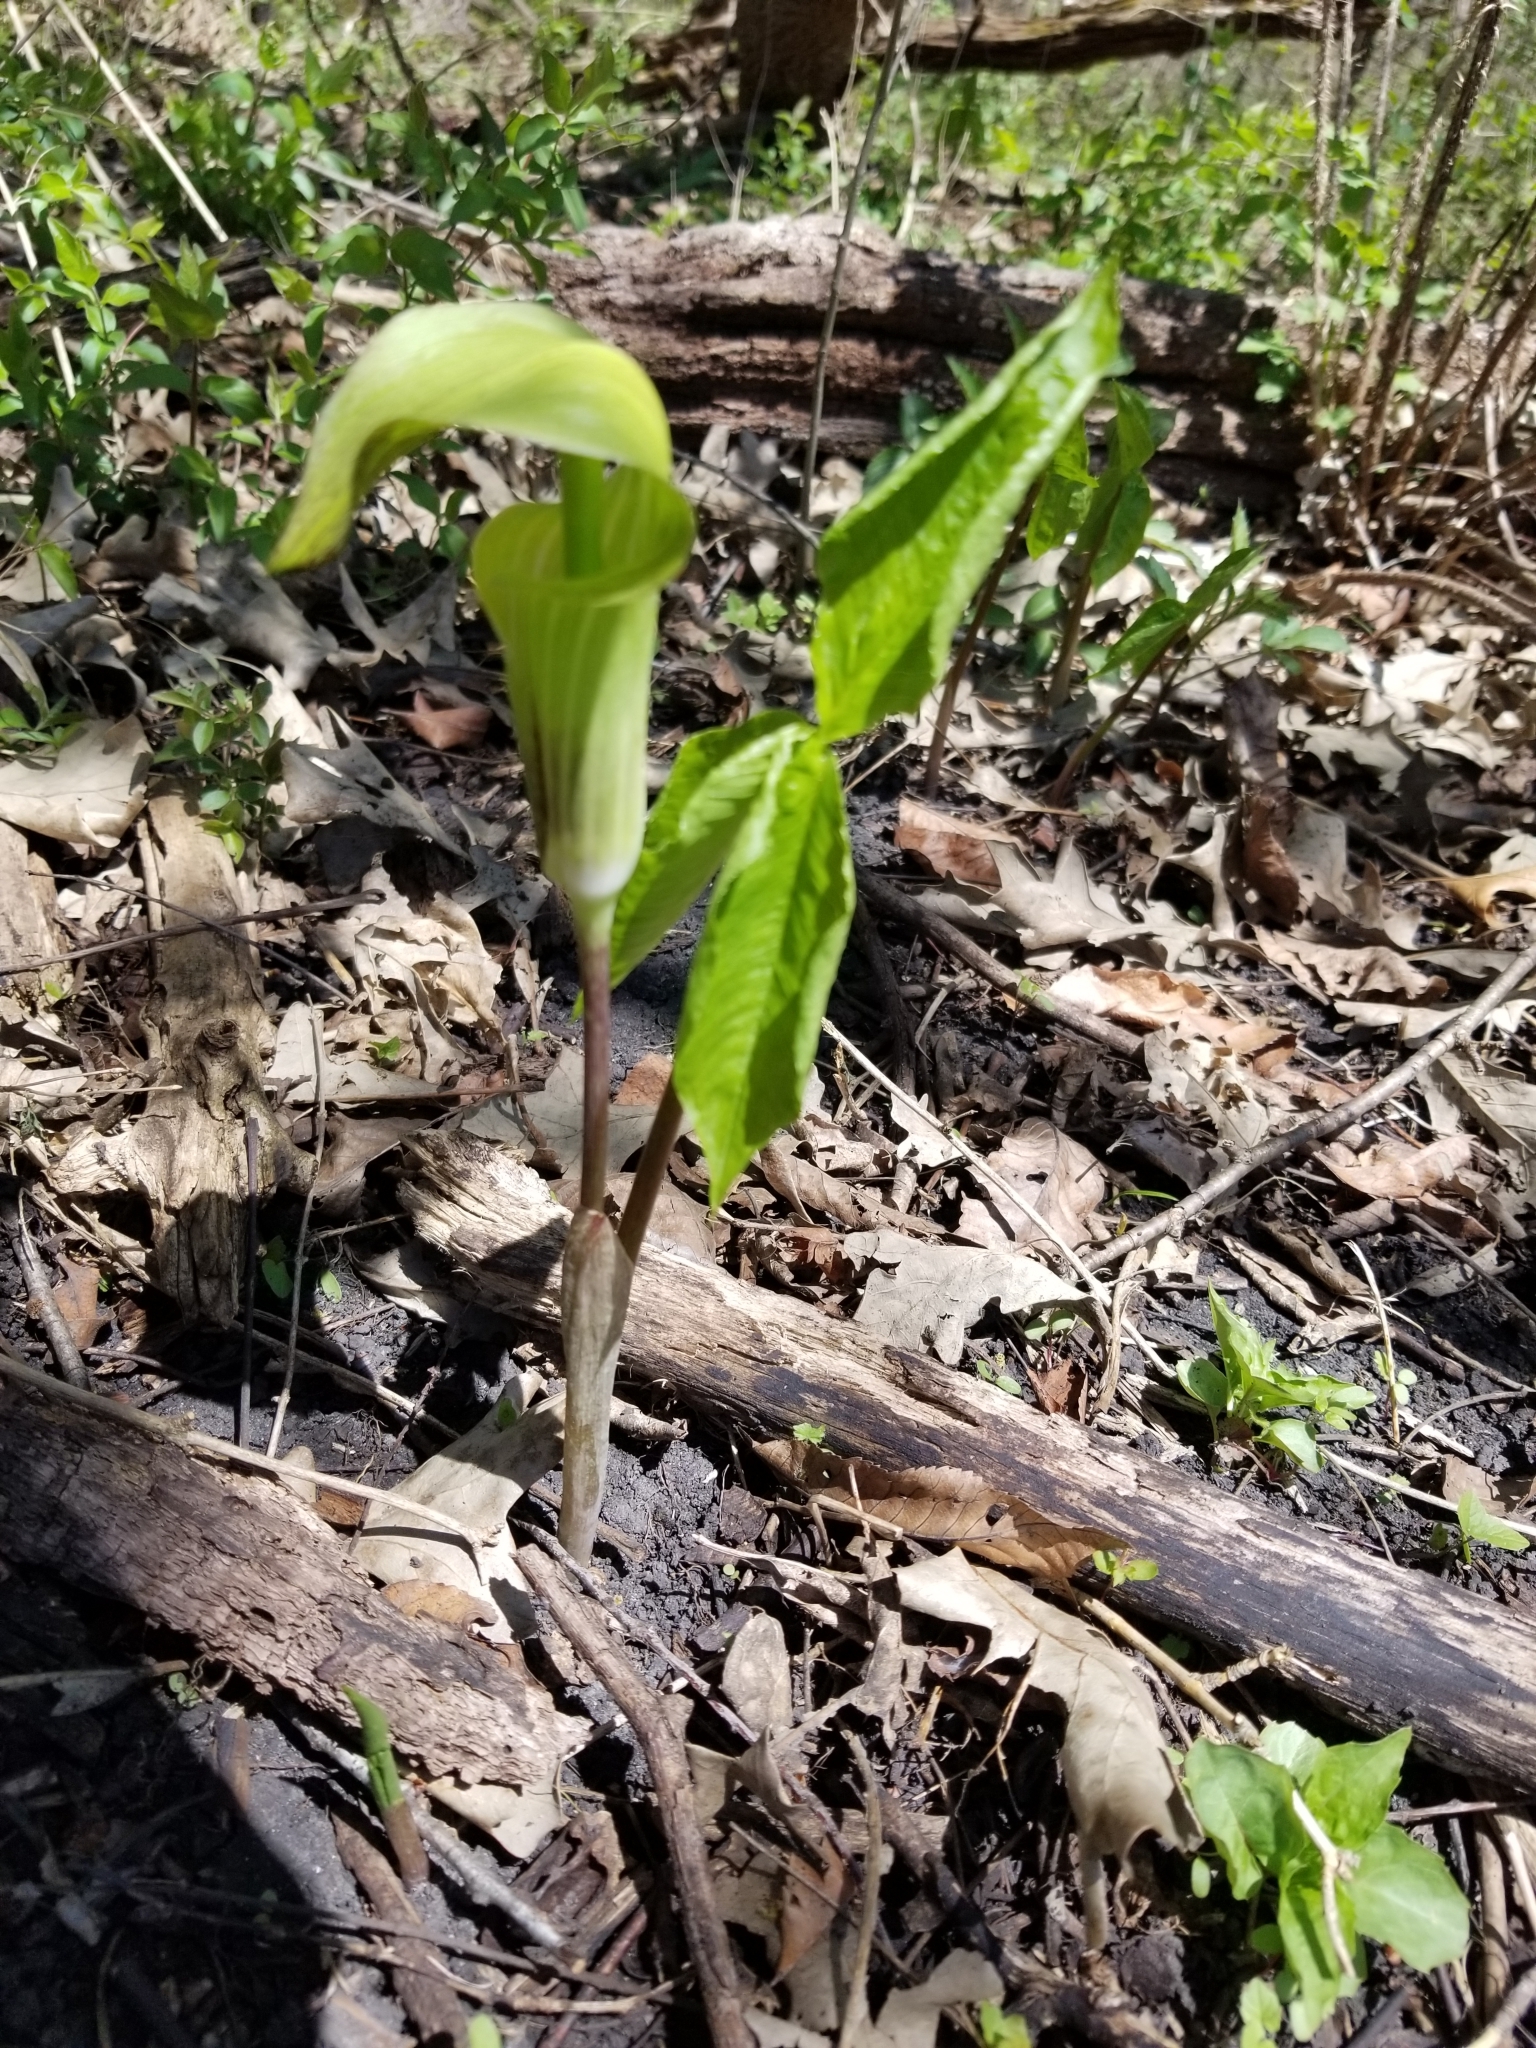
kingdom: Plantae
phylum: Tracheophyta
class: Liliopsida
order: Alismatales
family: Araceae
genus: Arisaema
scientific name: Arisaema triphyllum
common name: Jack-in-the-pulpit
